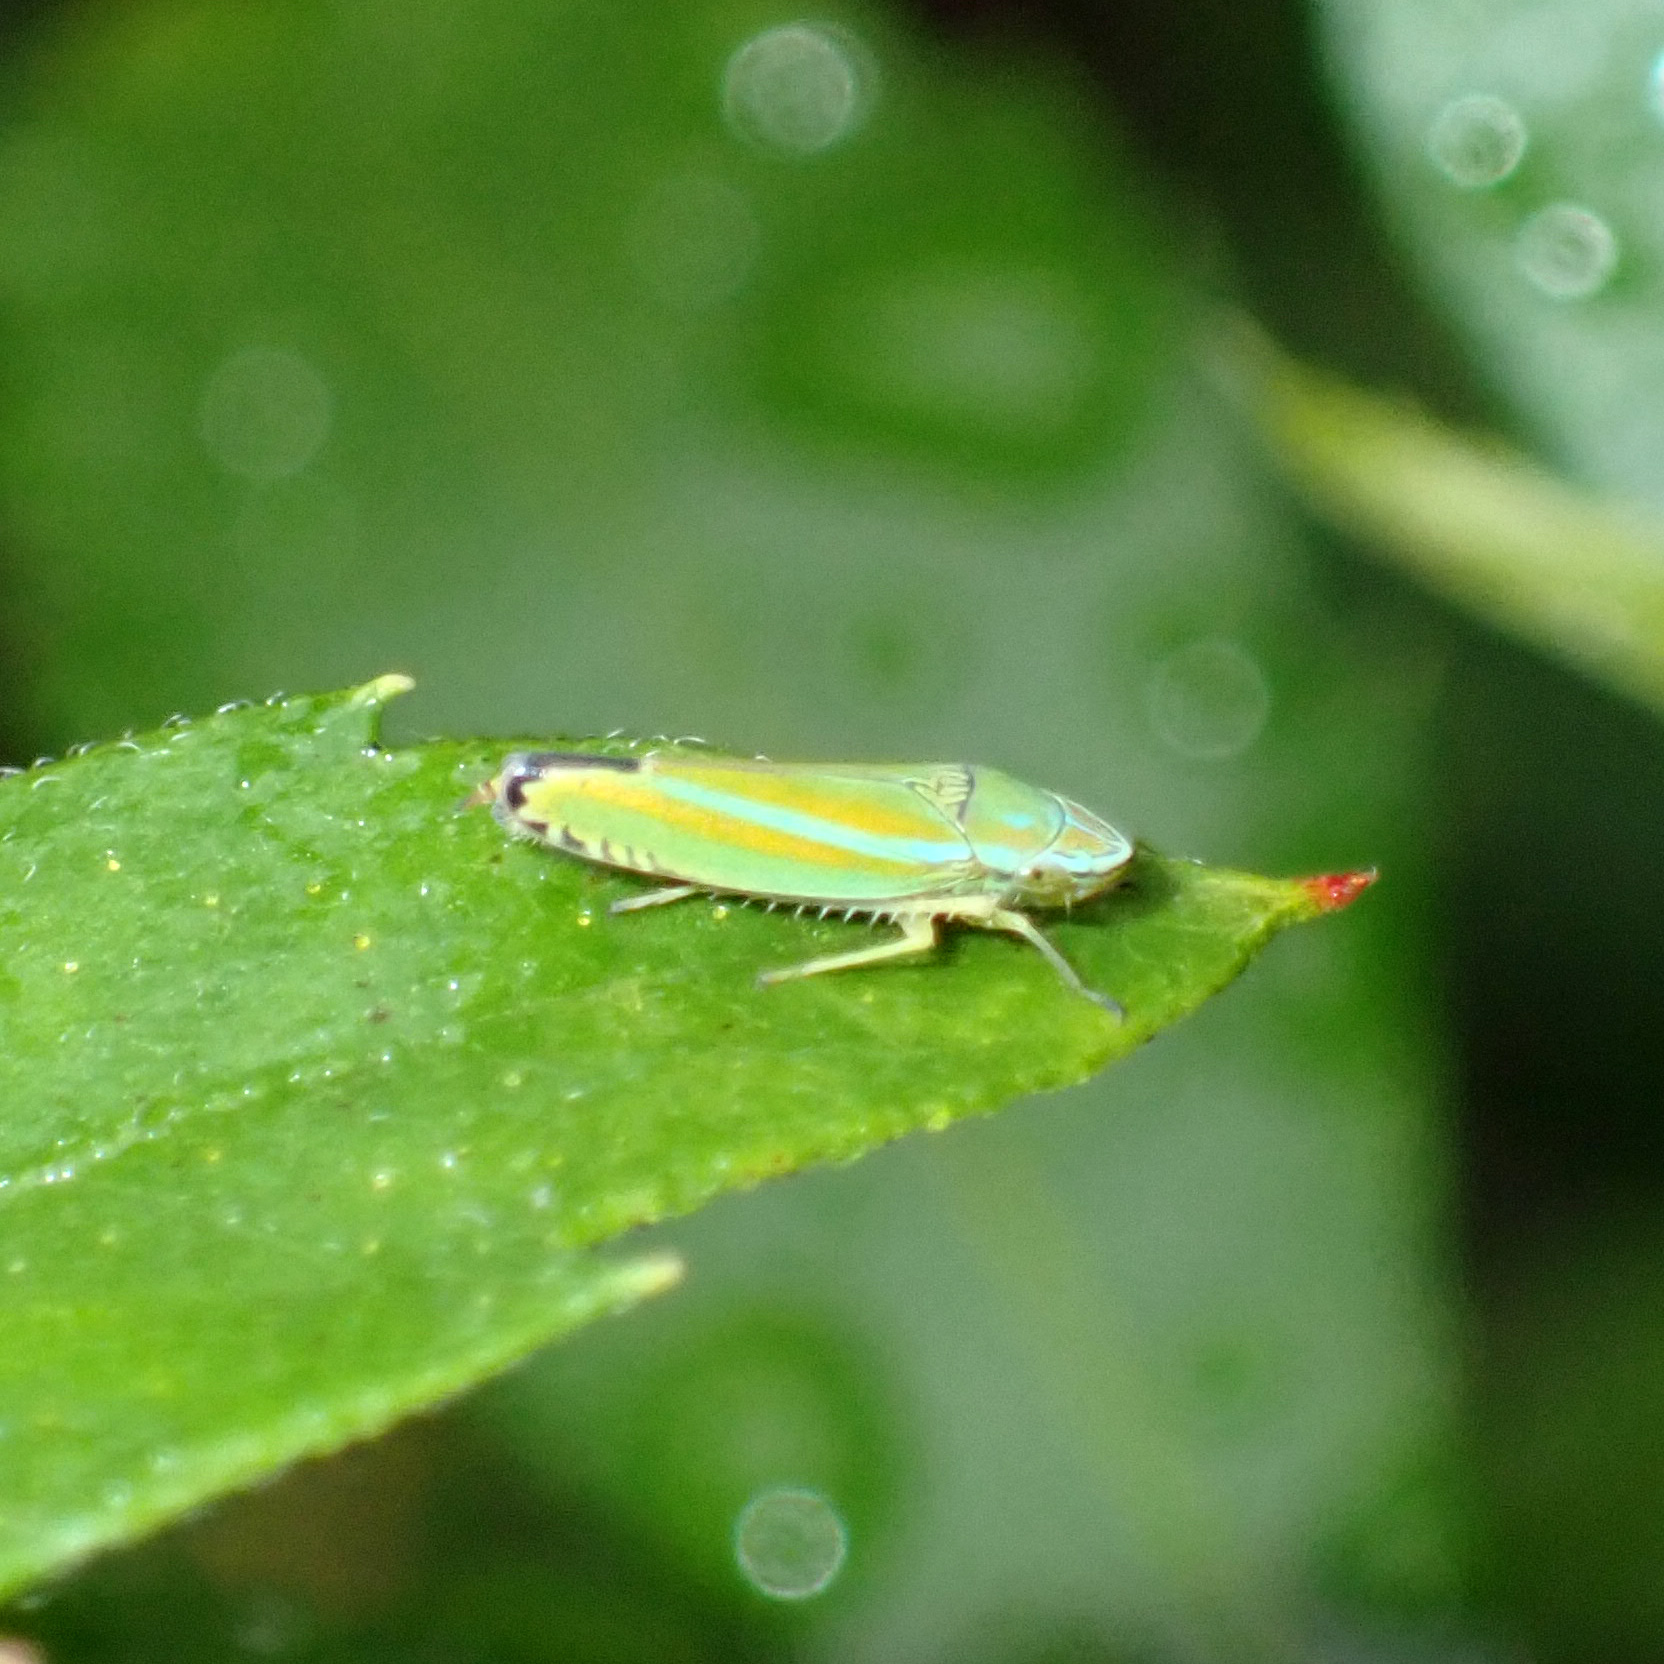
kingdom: Animalia
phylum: Arthropoda
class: Insecta
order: Hemiptera
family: Cicadellidae
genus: Graphocephala
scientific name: Graphocephala versuta
